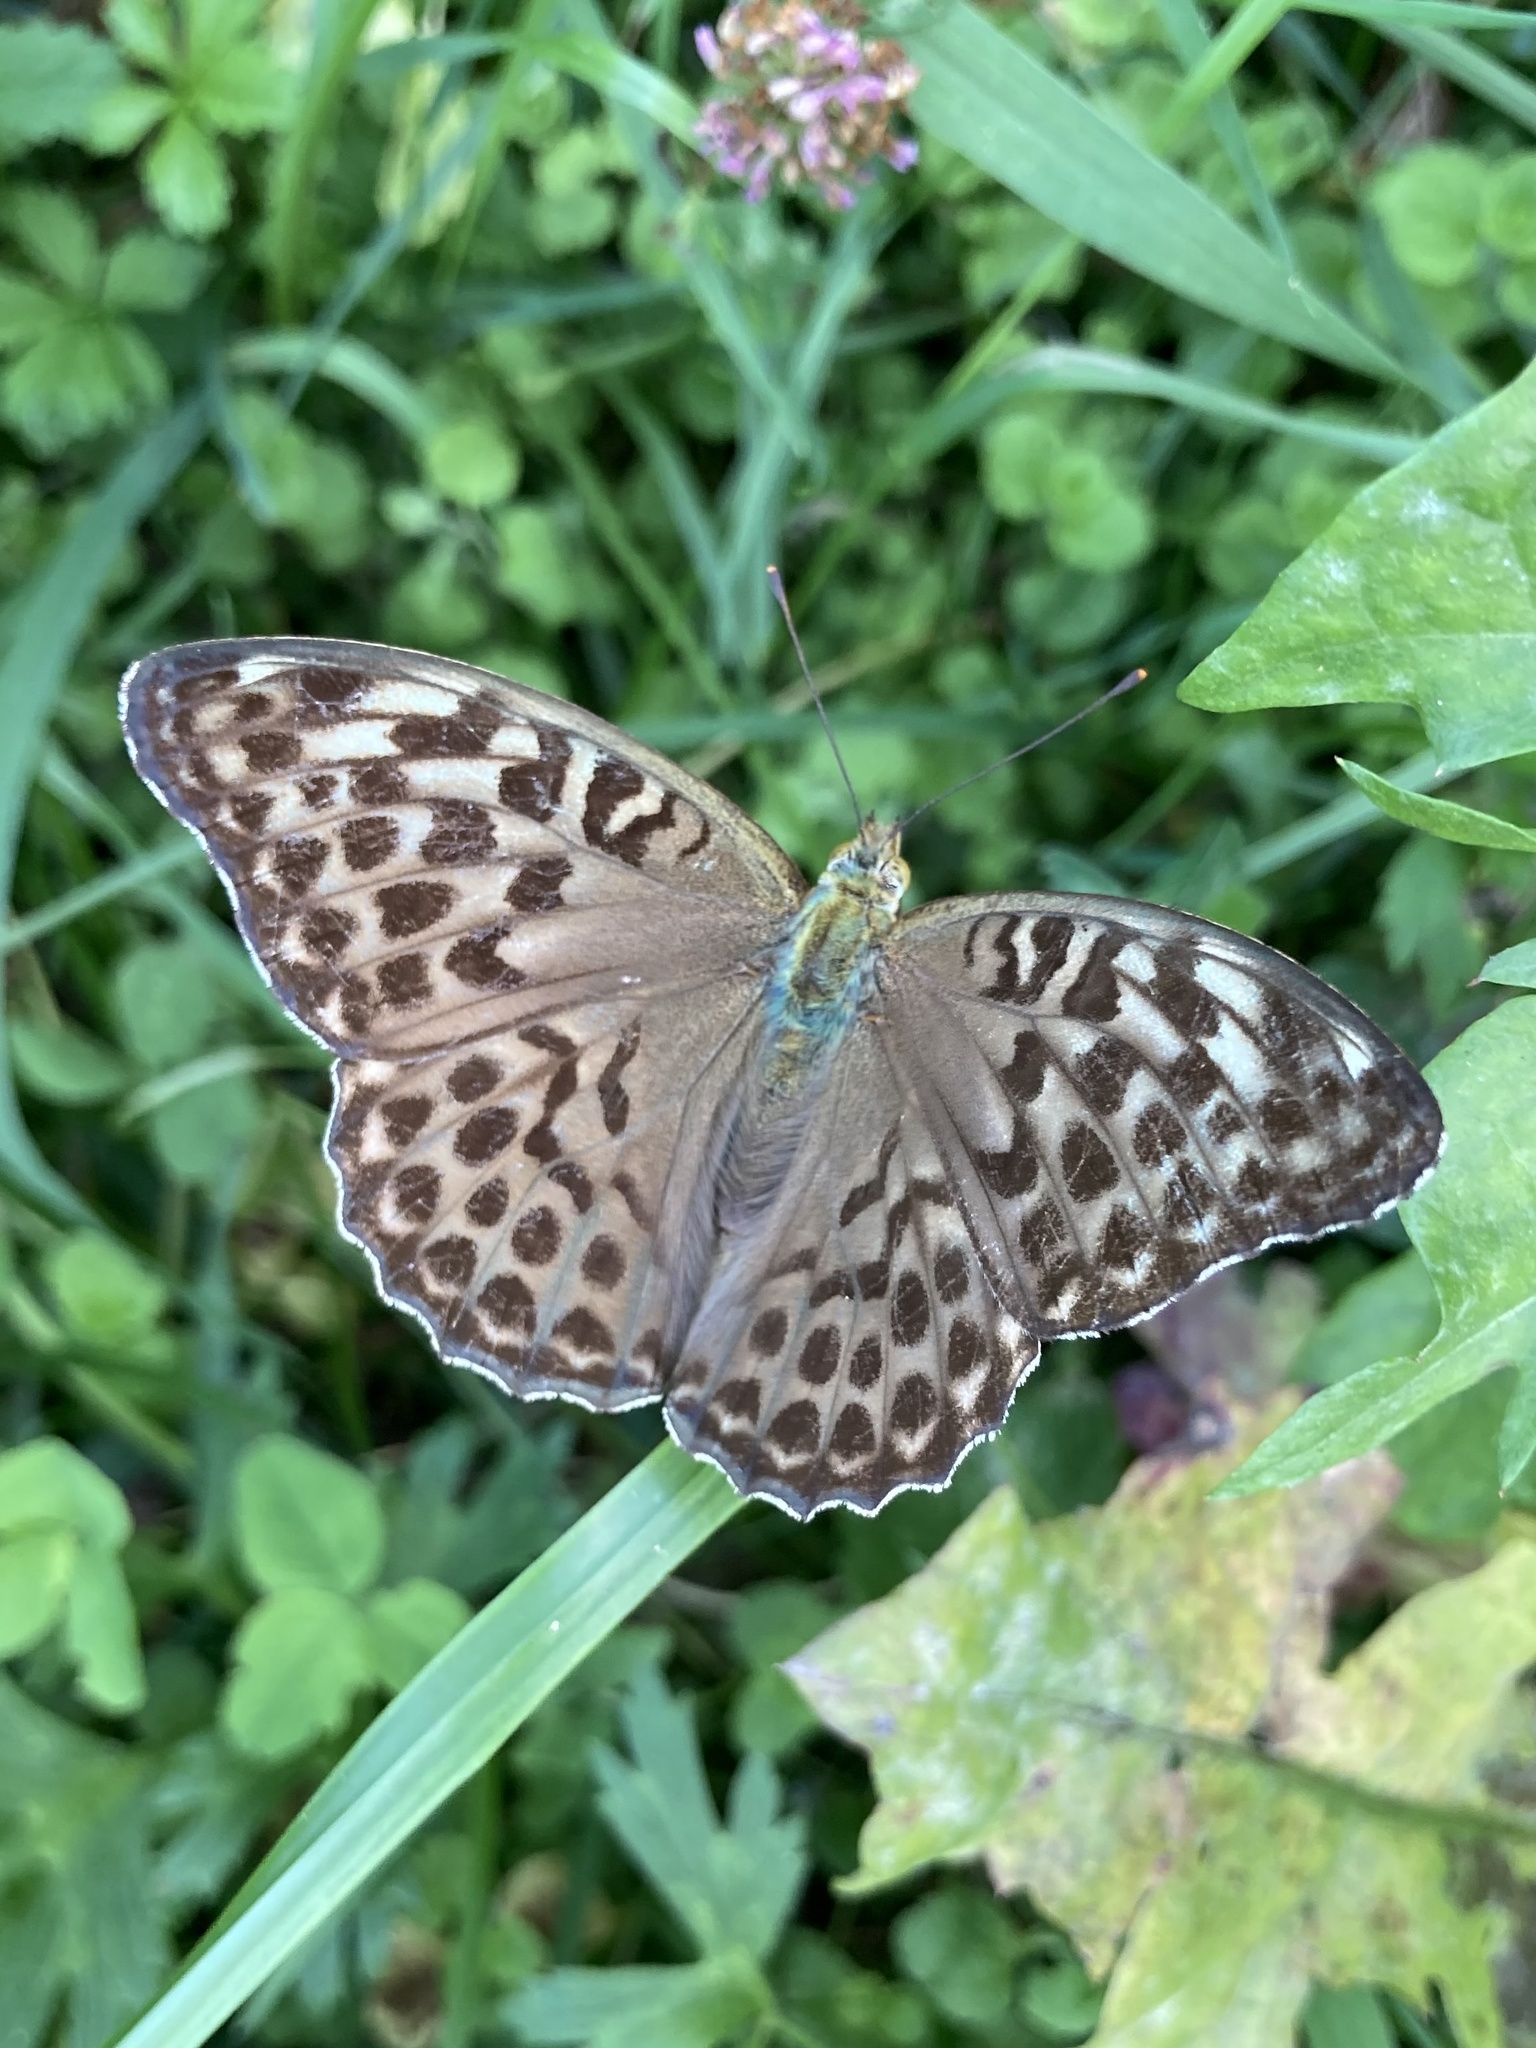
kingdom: Animalia
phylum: Arthropoda
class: Insecta
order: Lepidoptera
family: Nymphalidae
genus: Argynnis
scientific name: Argynnis paphia
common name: Silver-washed fritillary
